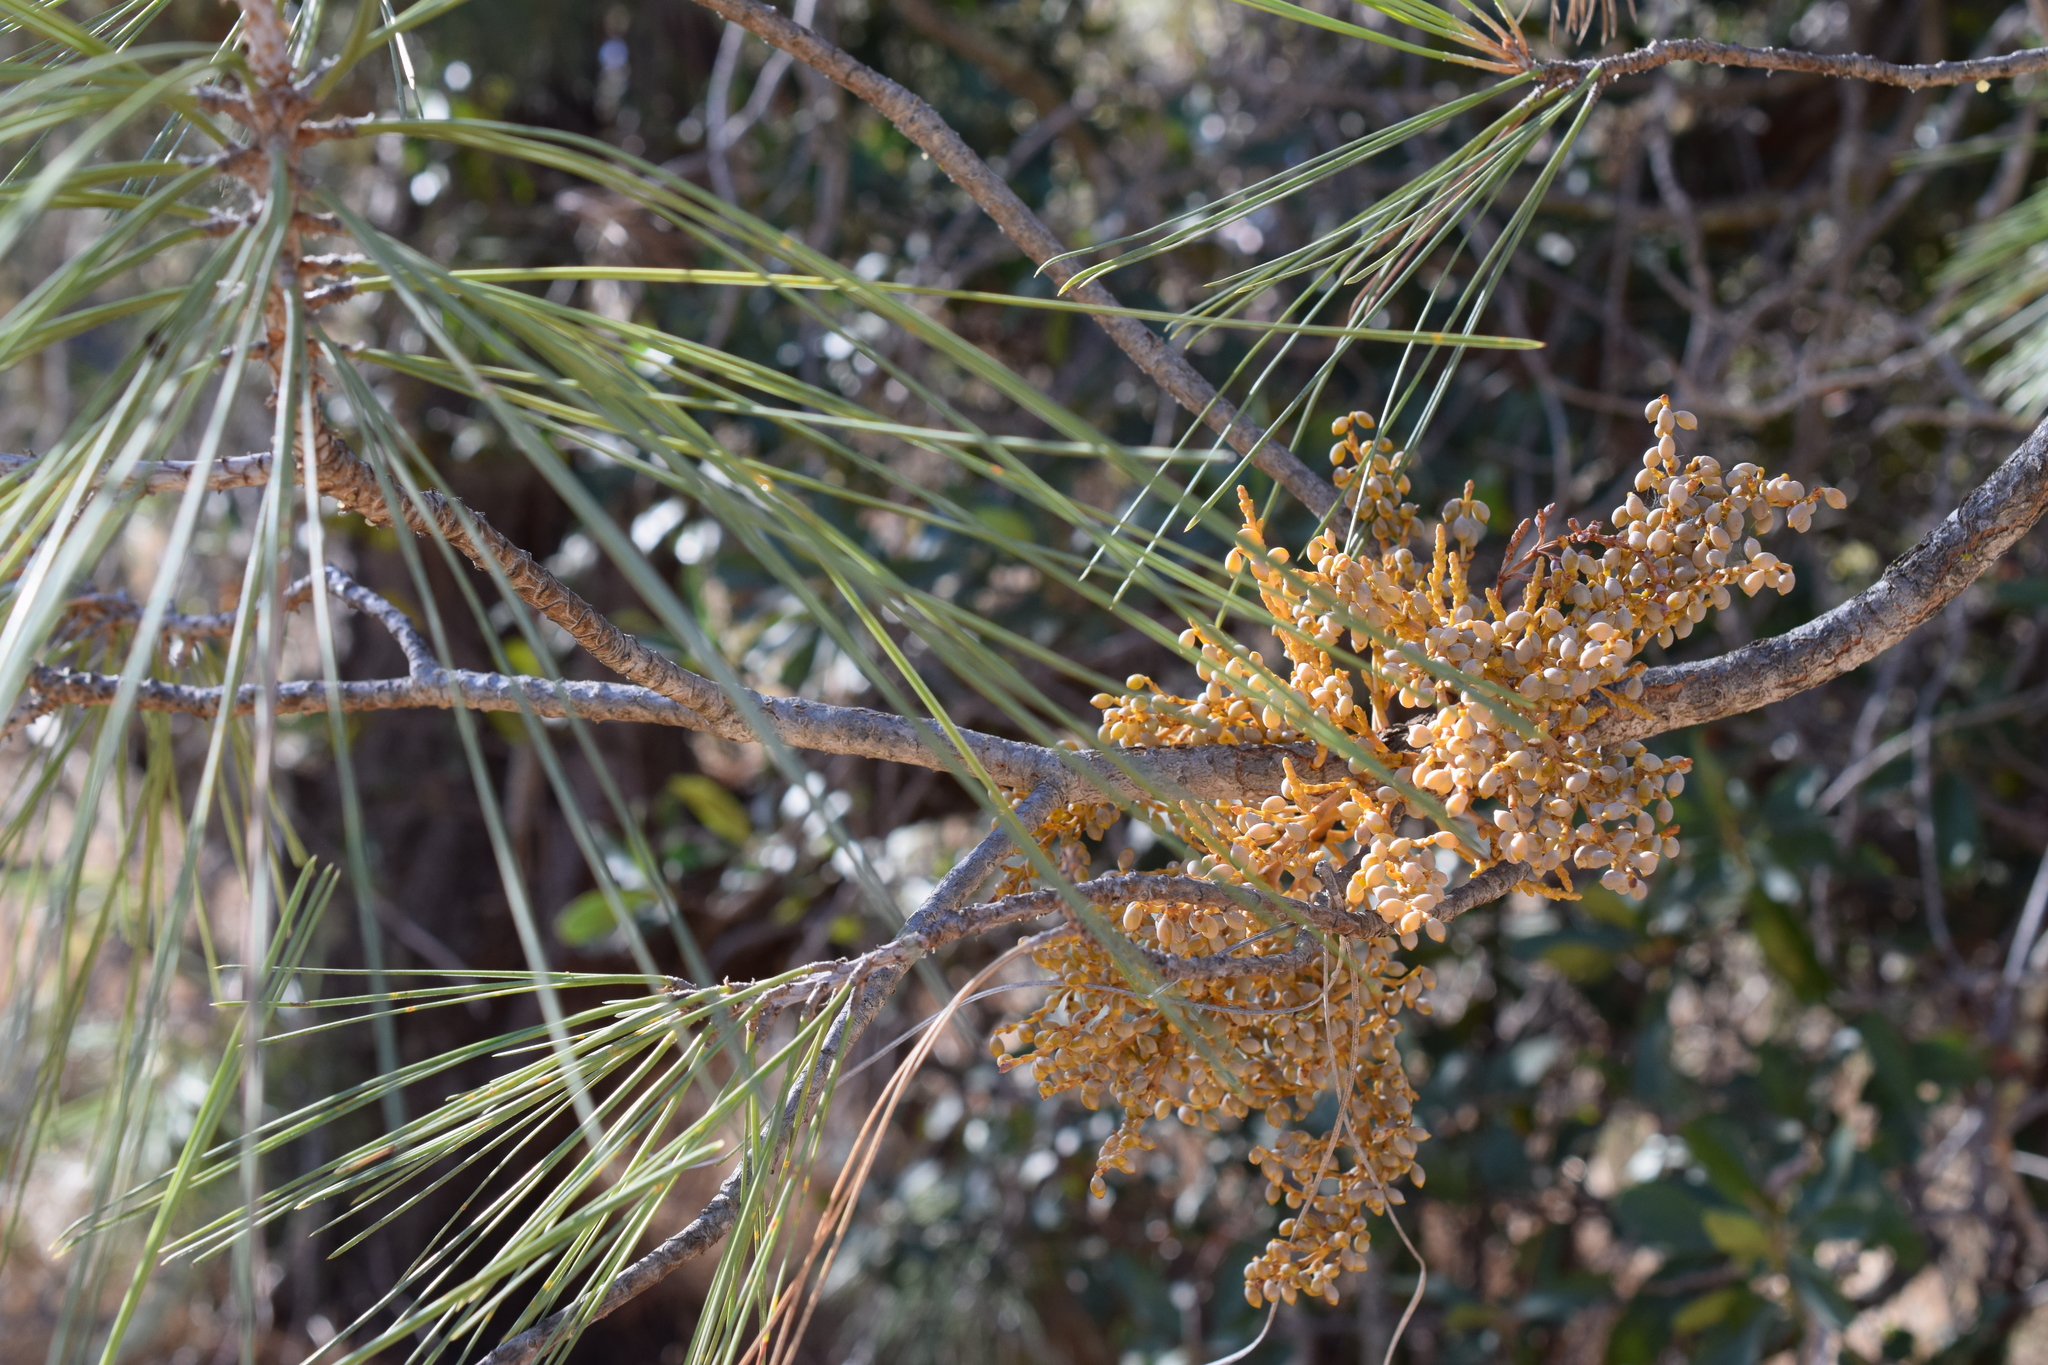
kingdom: Plantae
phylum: Tracheophyta
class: Magnoliopsida
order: Santalales
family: Viscaceae
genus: Arceuthobium
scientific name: Arceuthobium campylopodum
